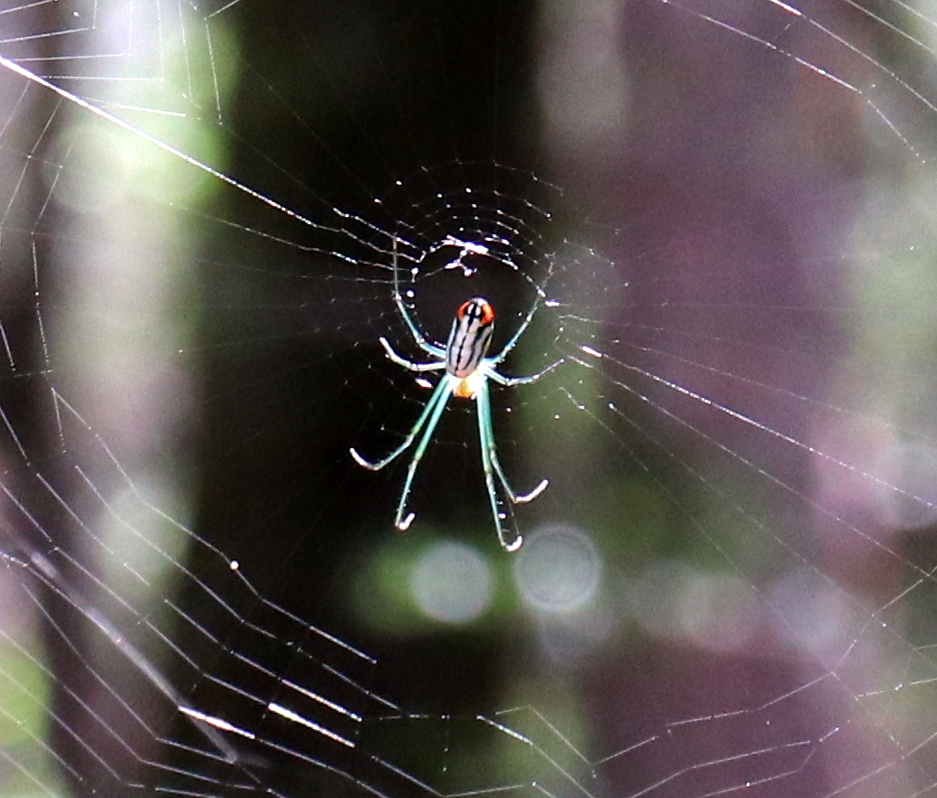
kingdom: Animalia
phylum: Arthropoda
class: Arachnida
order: Araneae
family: Tetragnathidae
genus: Leucauge
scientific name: Leucauge argyrobapta
